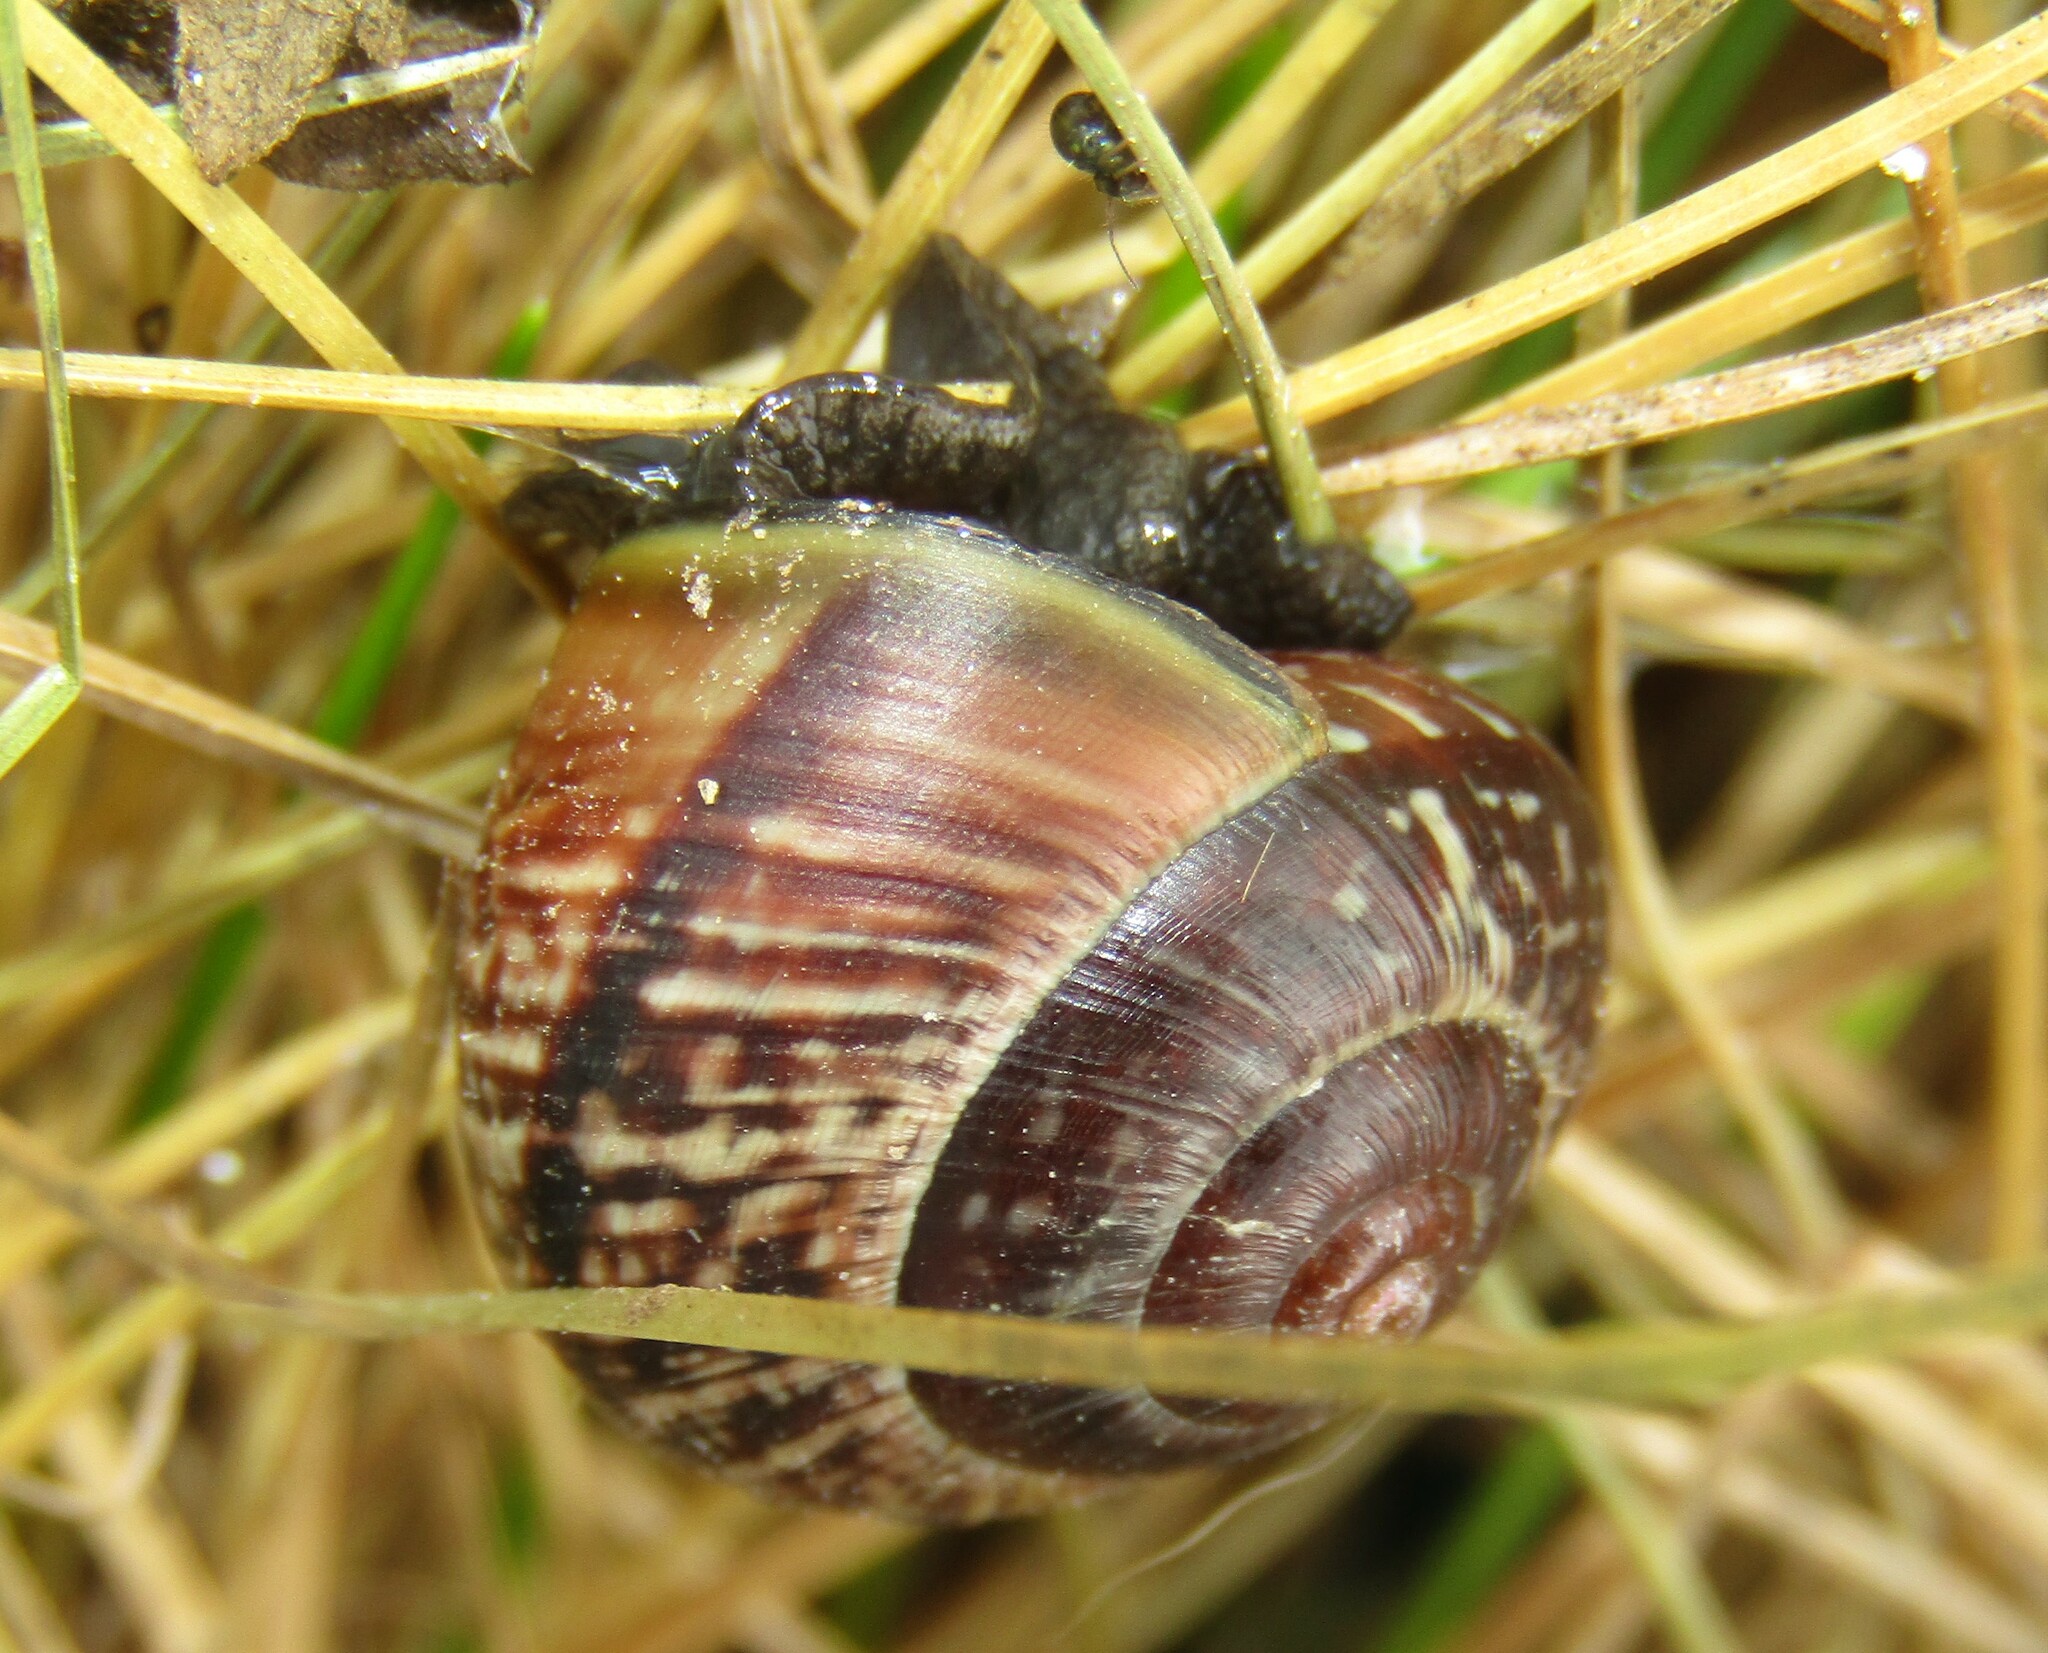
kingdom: Animalia
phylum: Mollusca
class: Gastropoda
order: Stylommatophora
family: Helicidae
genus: Arianta
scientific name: Arianta arbustorum
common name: Copse snail
